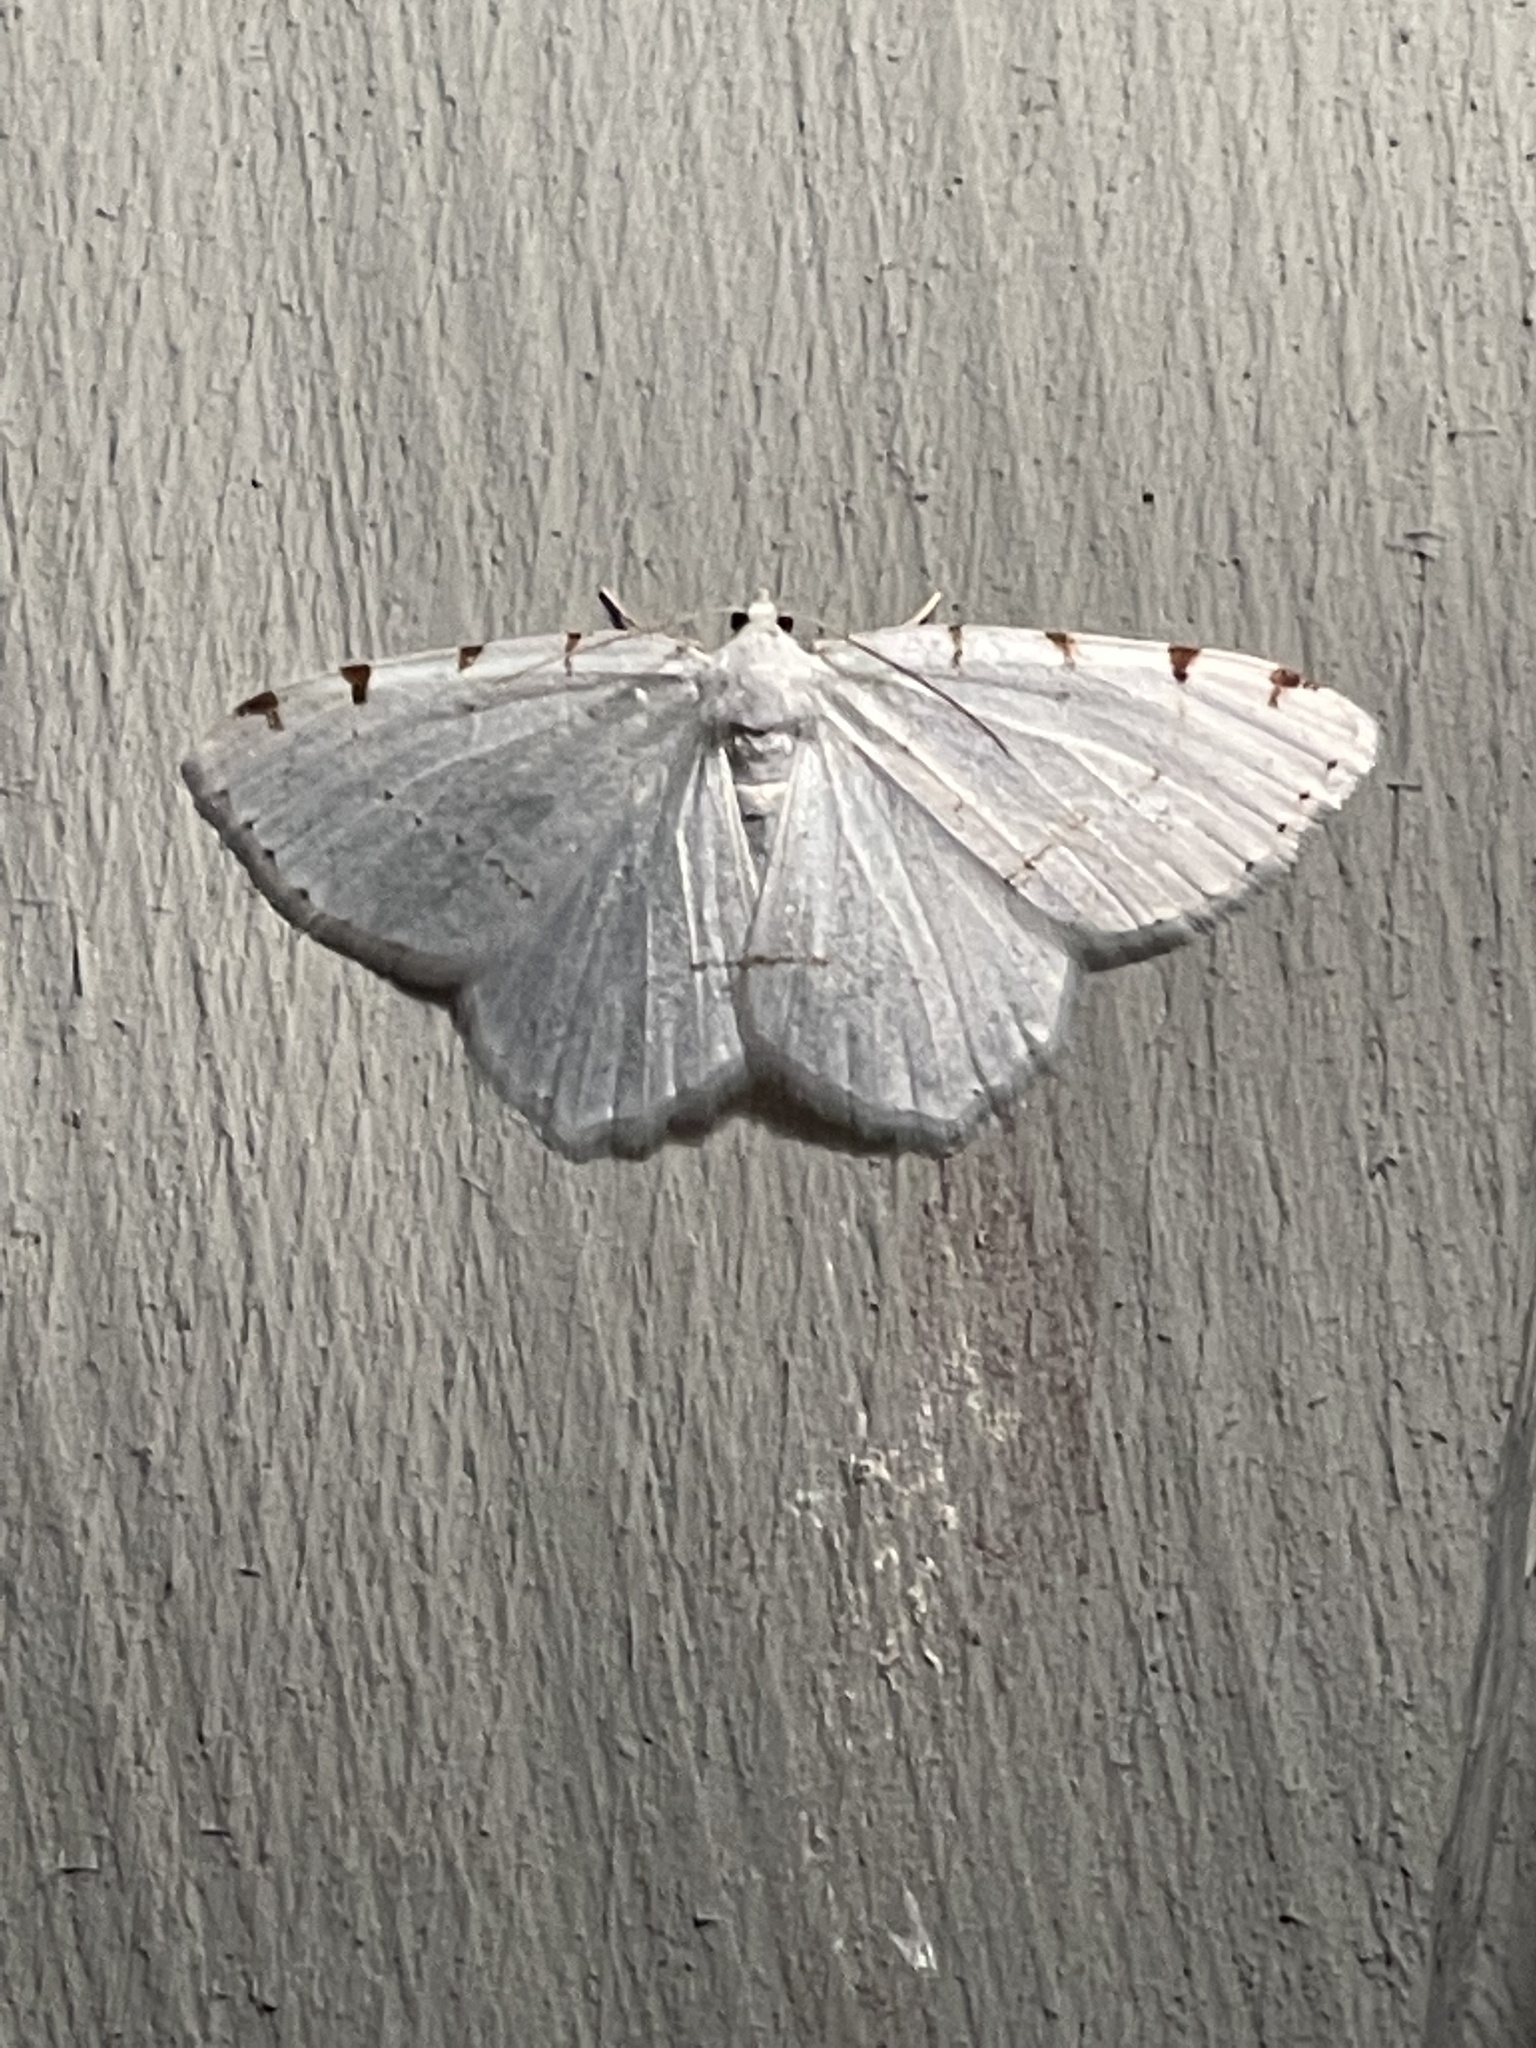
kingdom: Animalia
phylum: Arthropoda
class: Insecta
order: Lepidoptera
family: Geometridae
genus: Macaria
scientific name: Macaria pustularia
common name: Lesser maple spanworm moth
